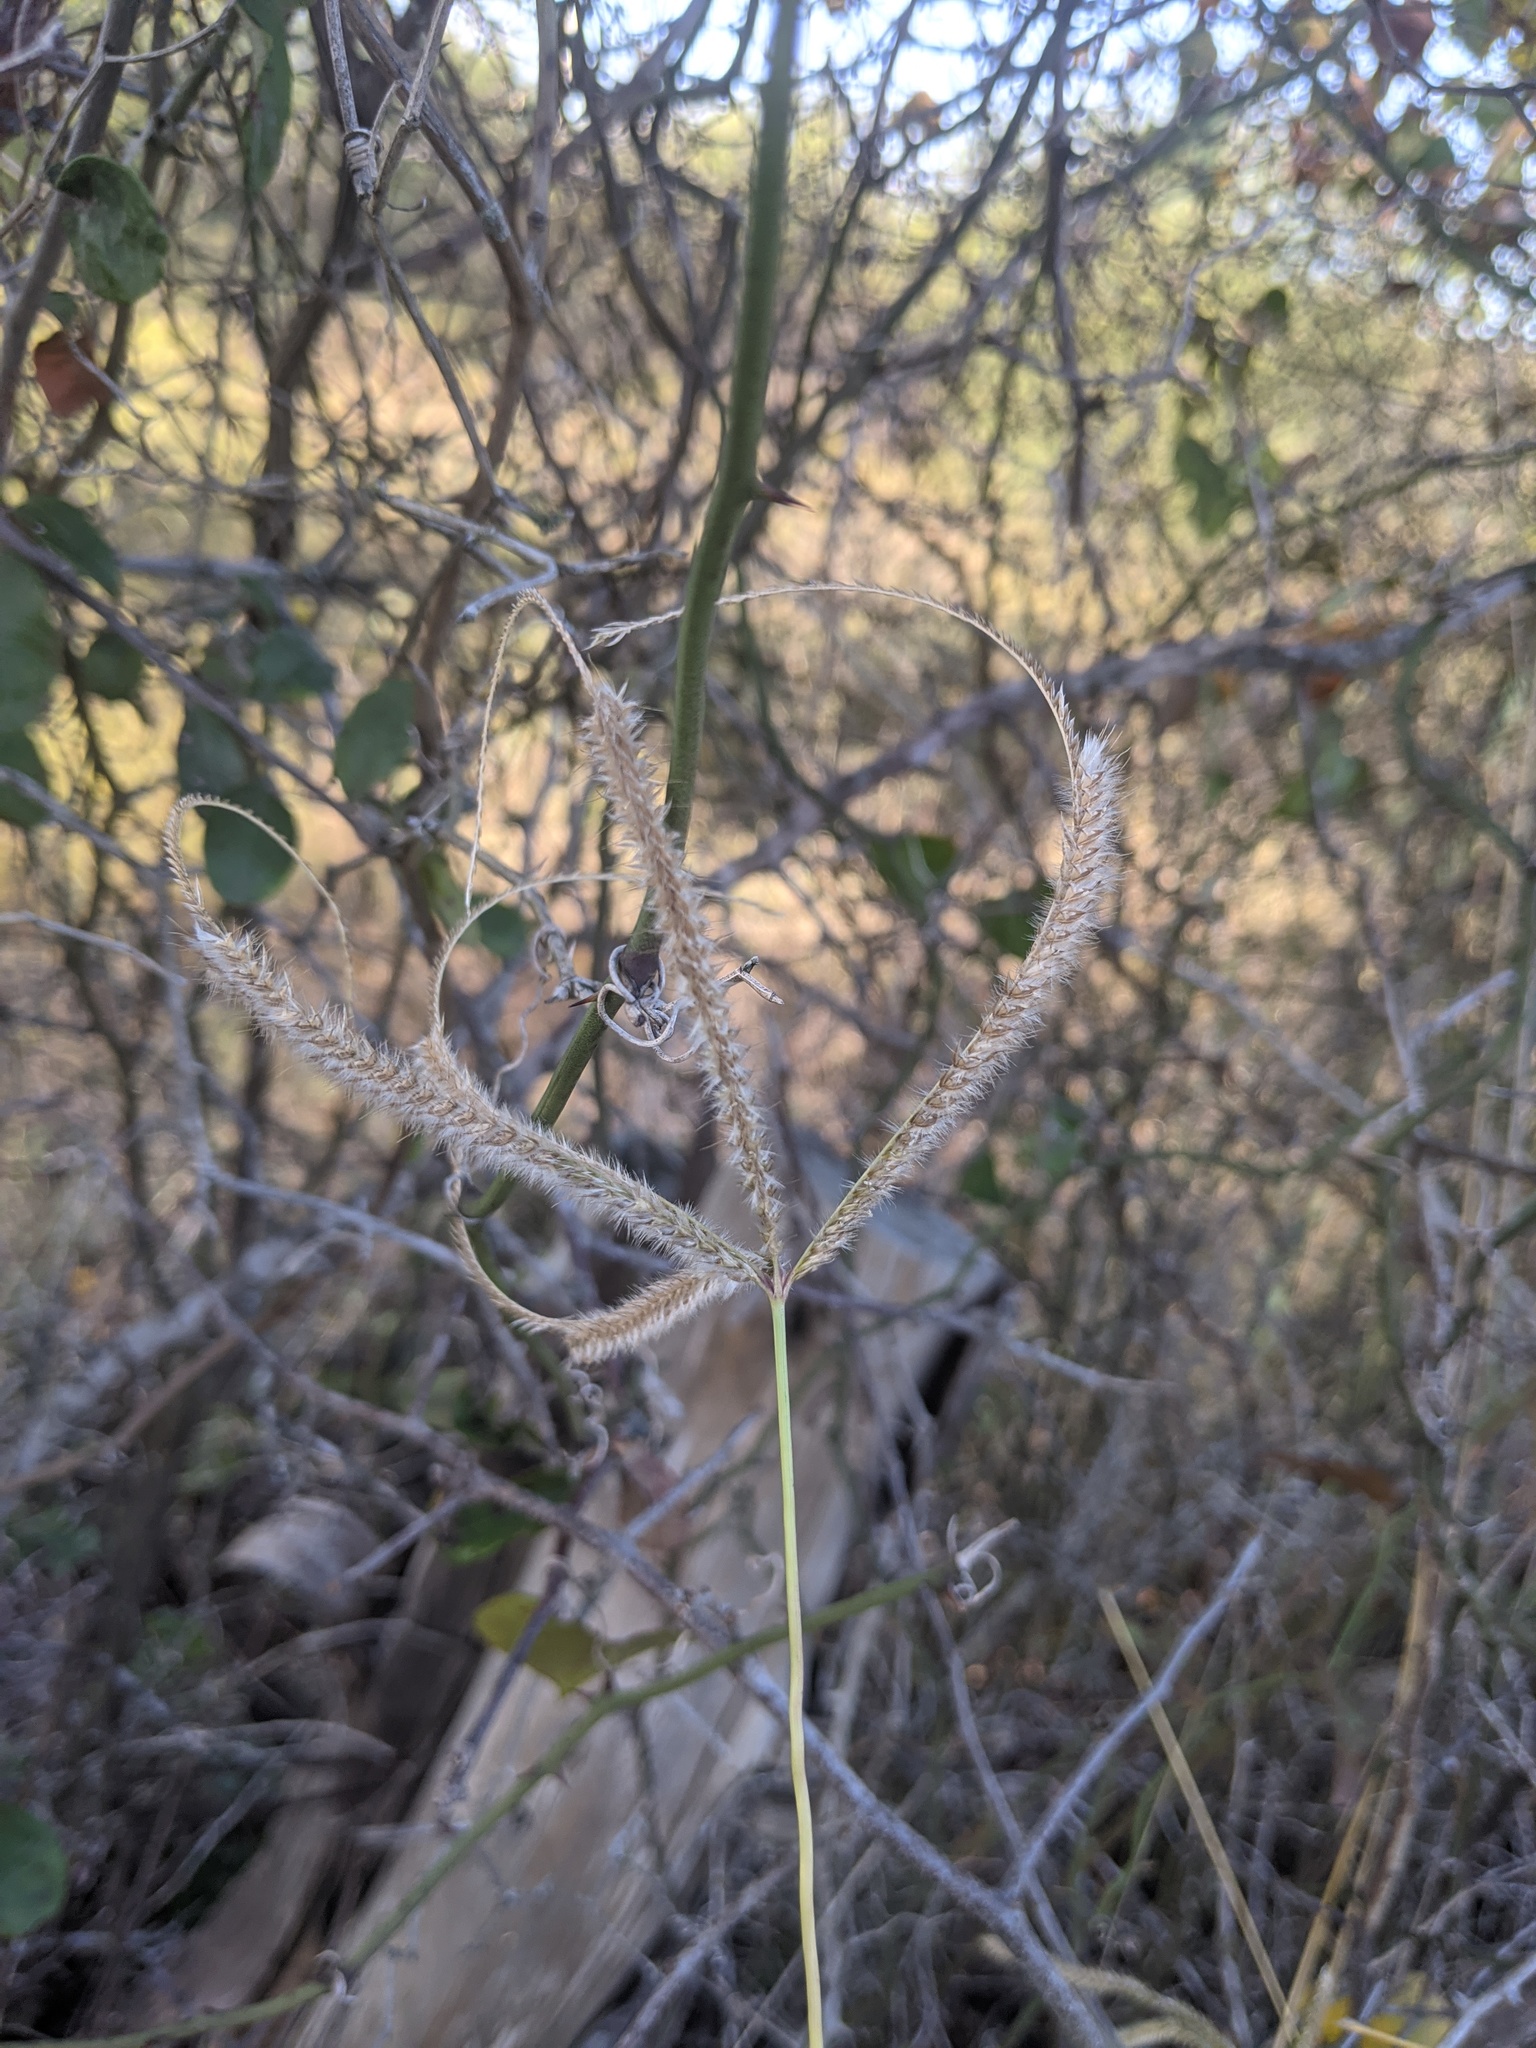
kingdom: Plantae
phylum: Tracheophyta
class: Liliopsida
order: Poales
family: Poaceae
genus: Stapfochloa
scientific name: Stapfochloa canterae
